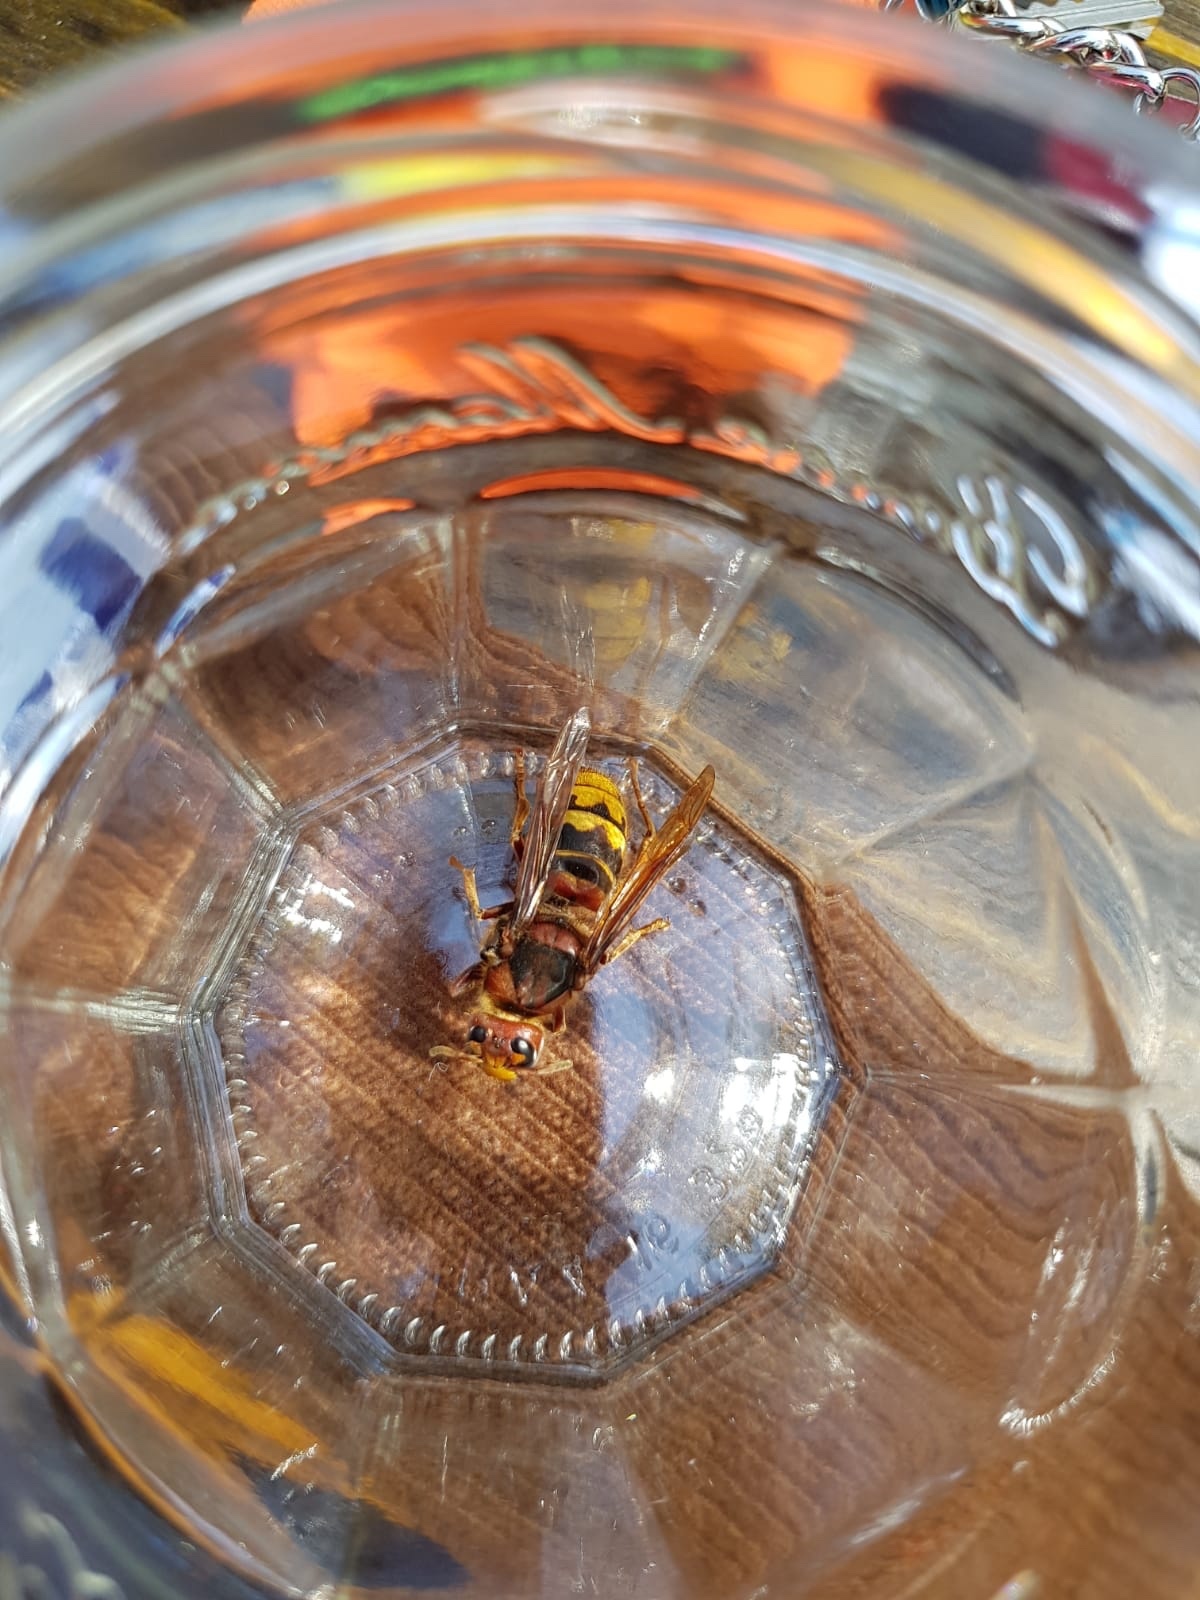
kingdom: Animalia
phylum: Arthropoda
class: Insecta
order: Hymenoptera
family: Vespidae
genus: Vespa
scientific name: Vespa crabro
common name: Hornet
